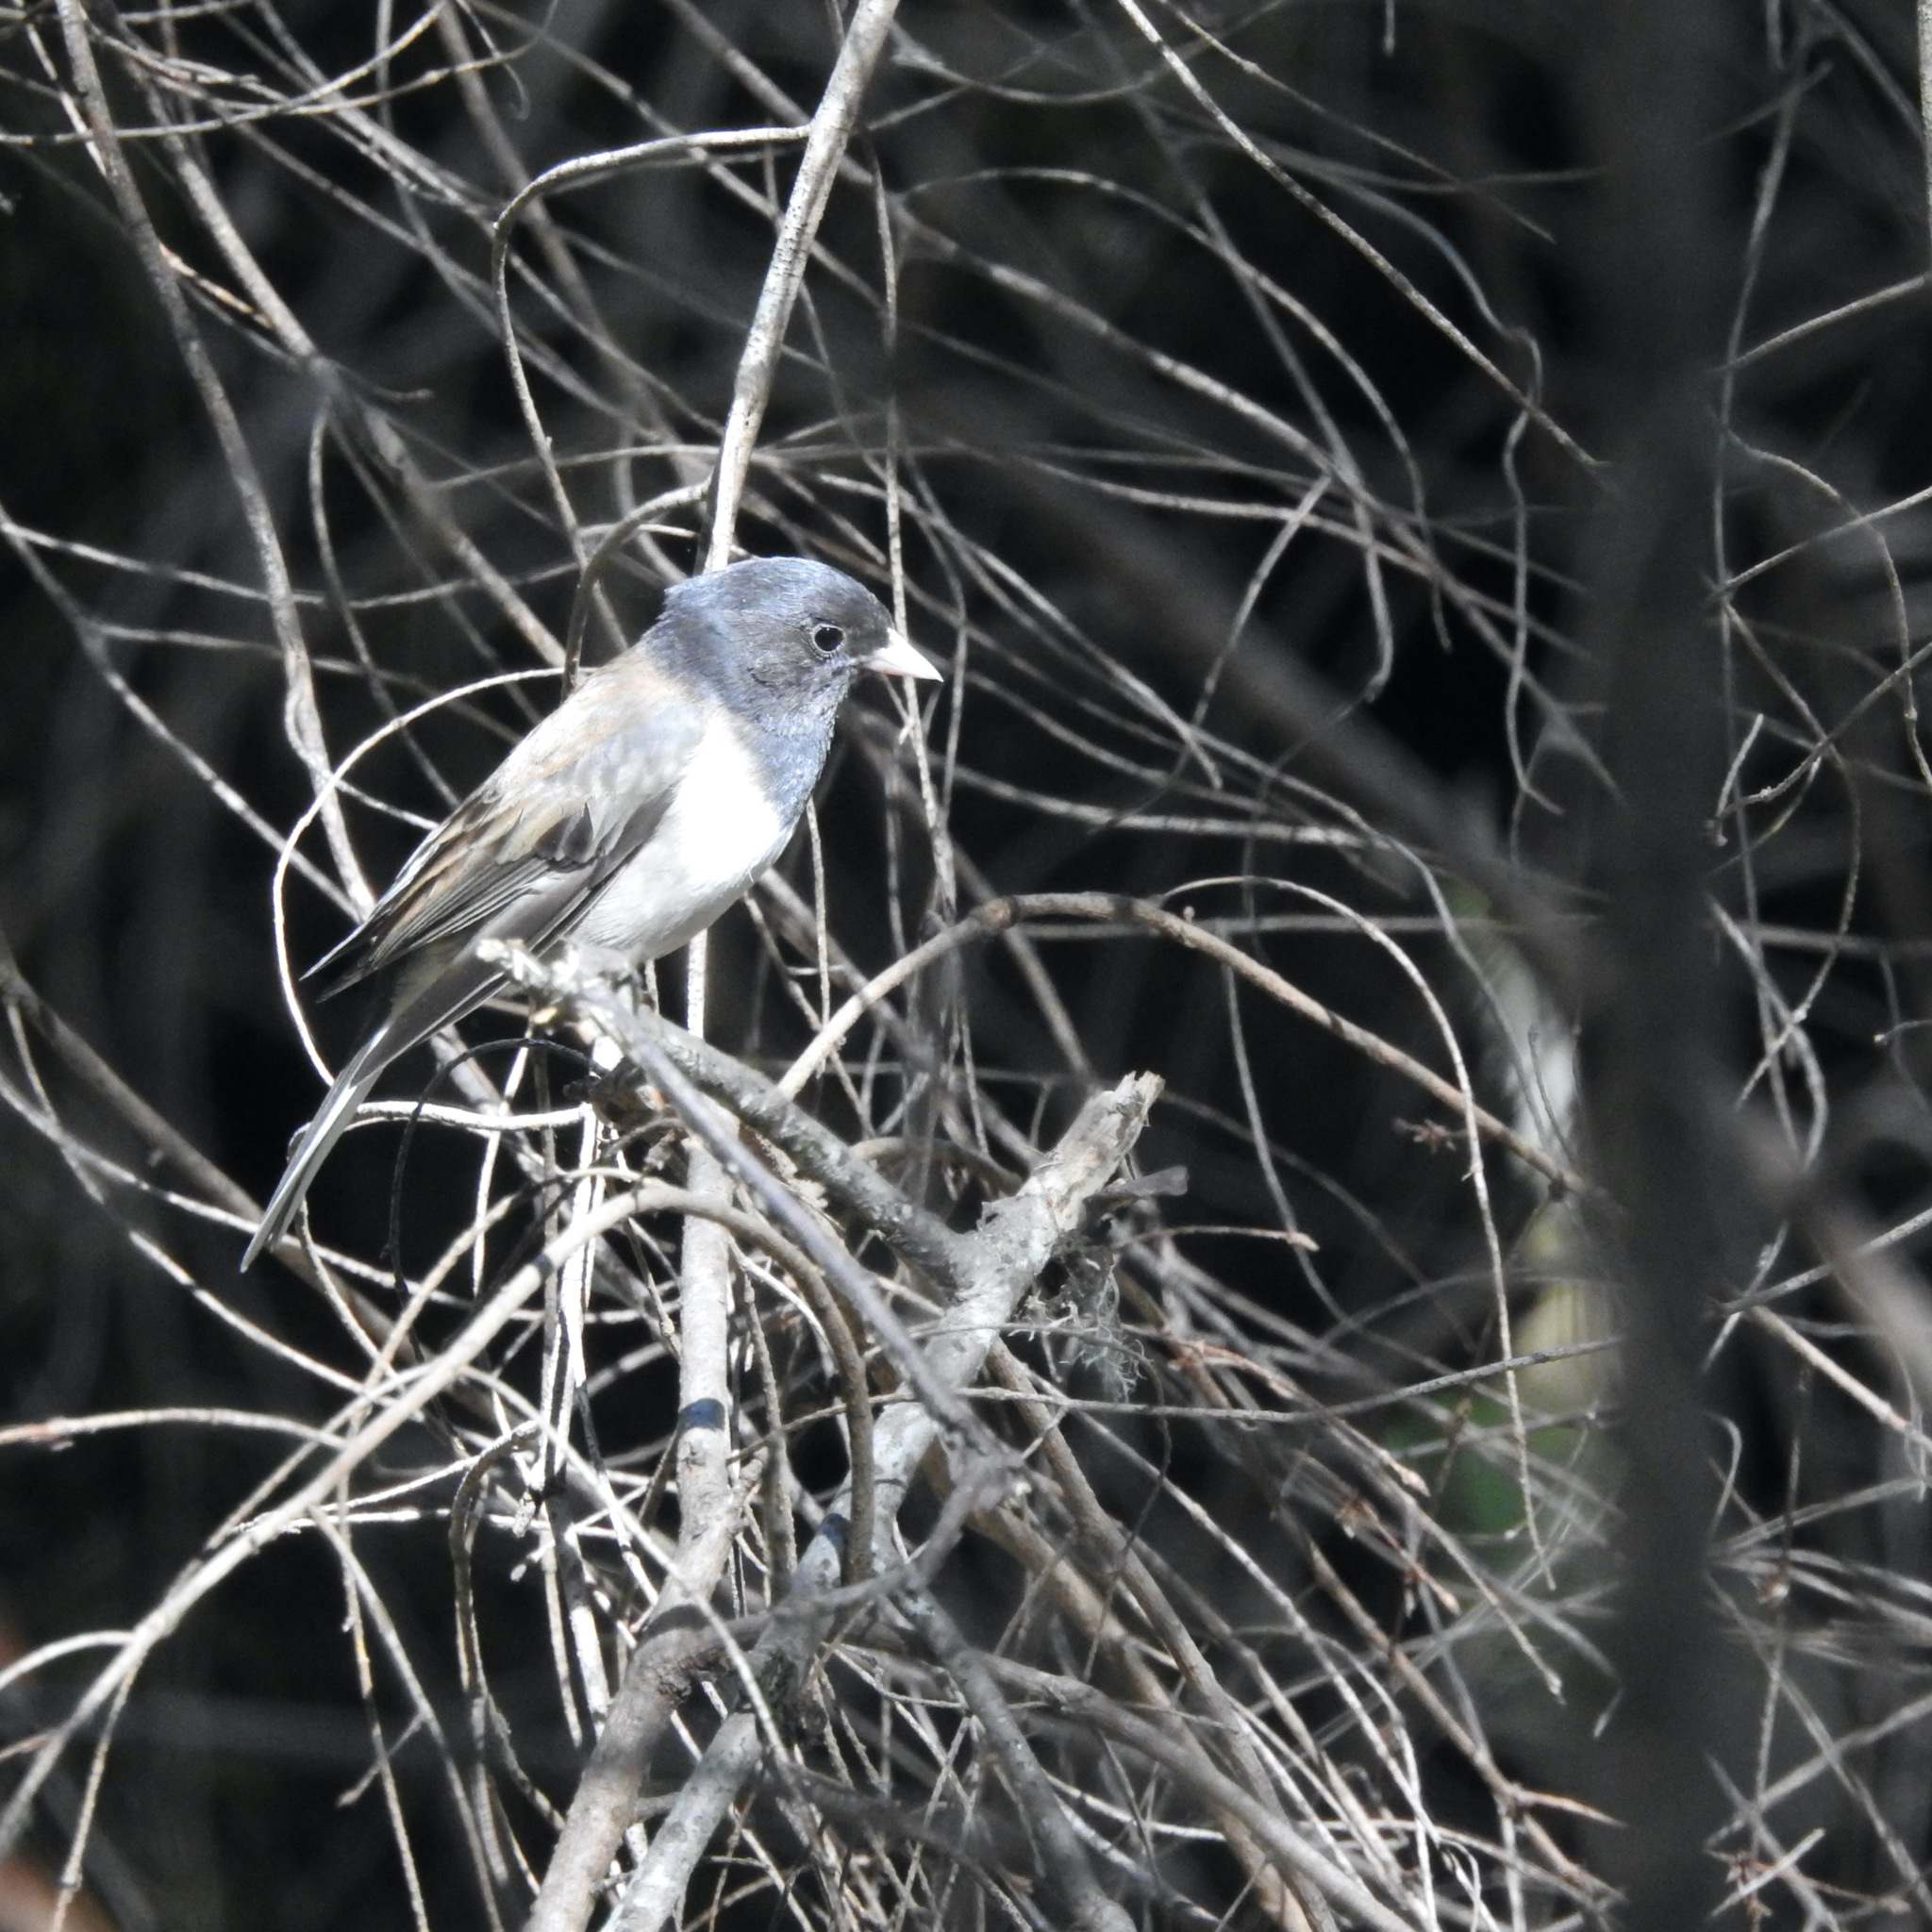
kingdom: Animalia
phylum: Chordata
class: Aves
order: Passeriformes
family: Passerellidae
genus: Junco
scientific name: Junco hyemalis
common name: Dark-eyed junco
